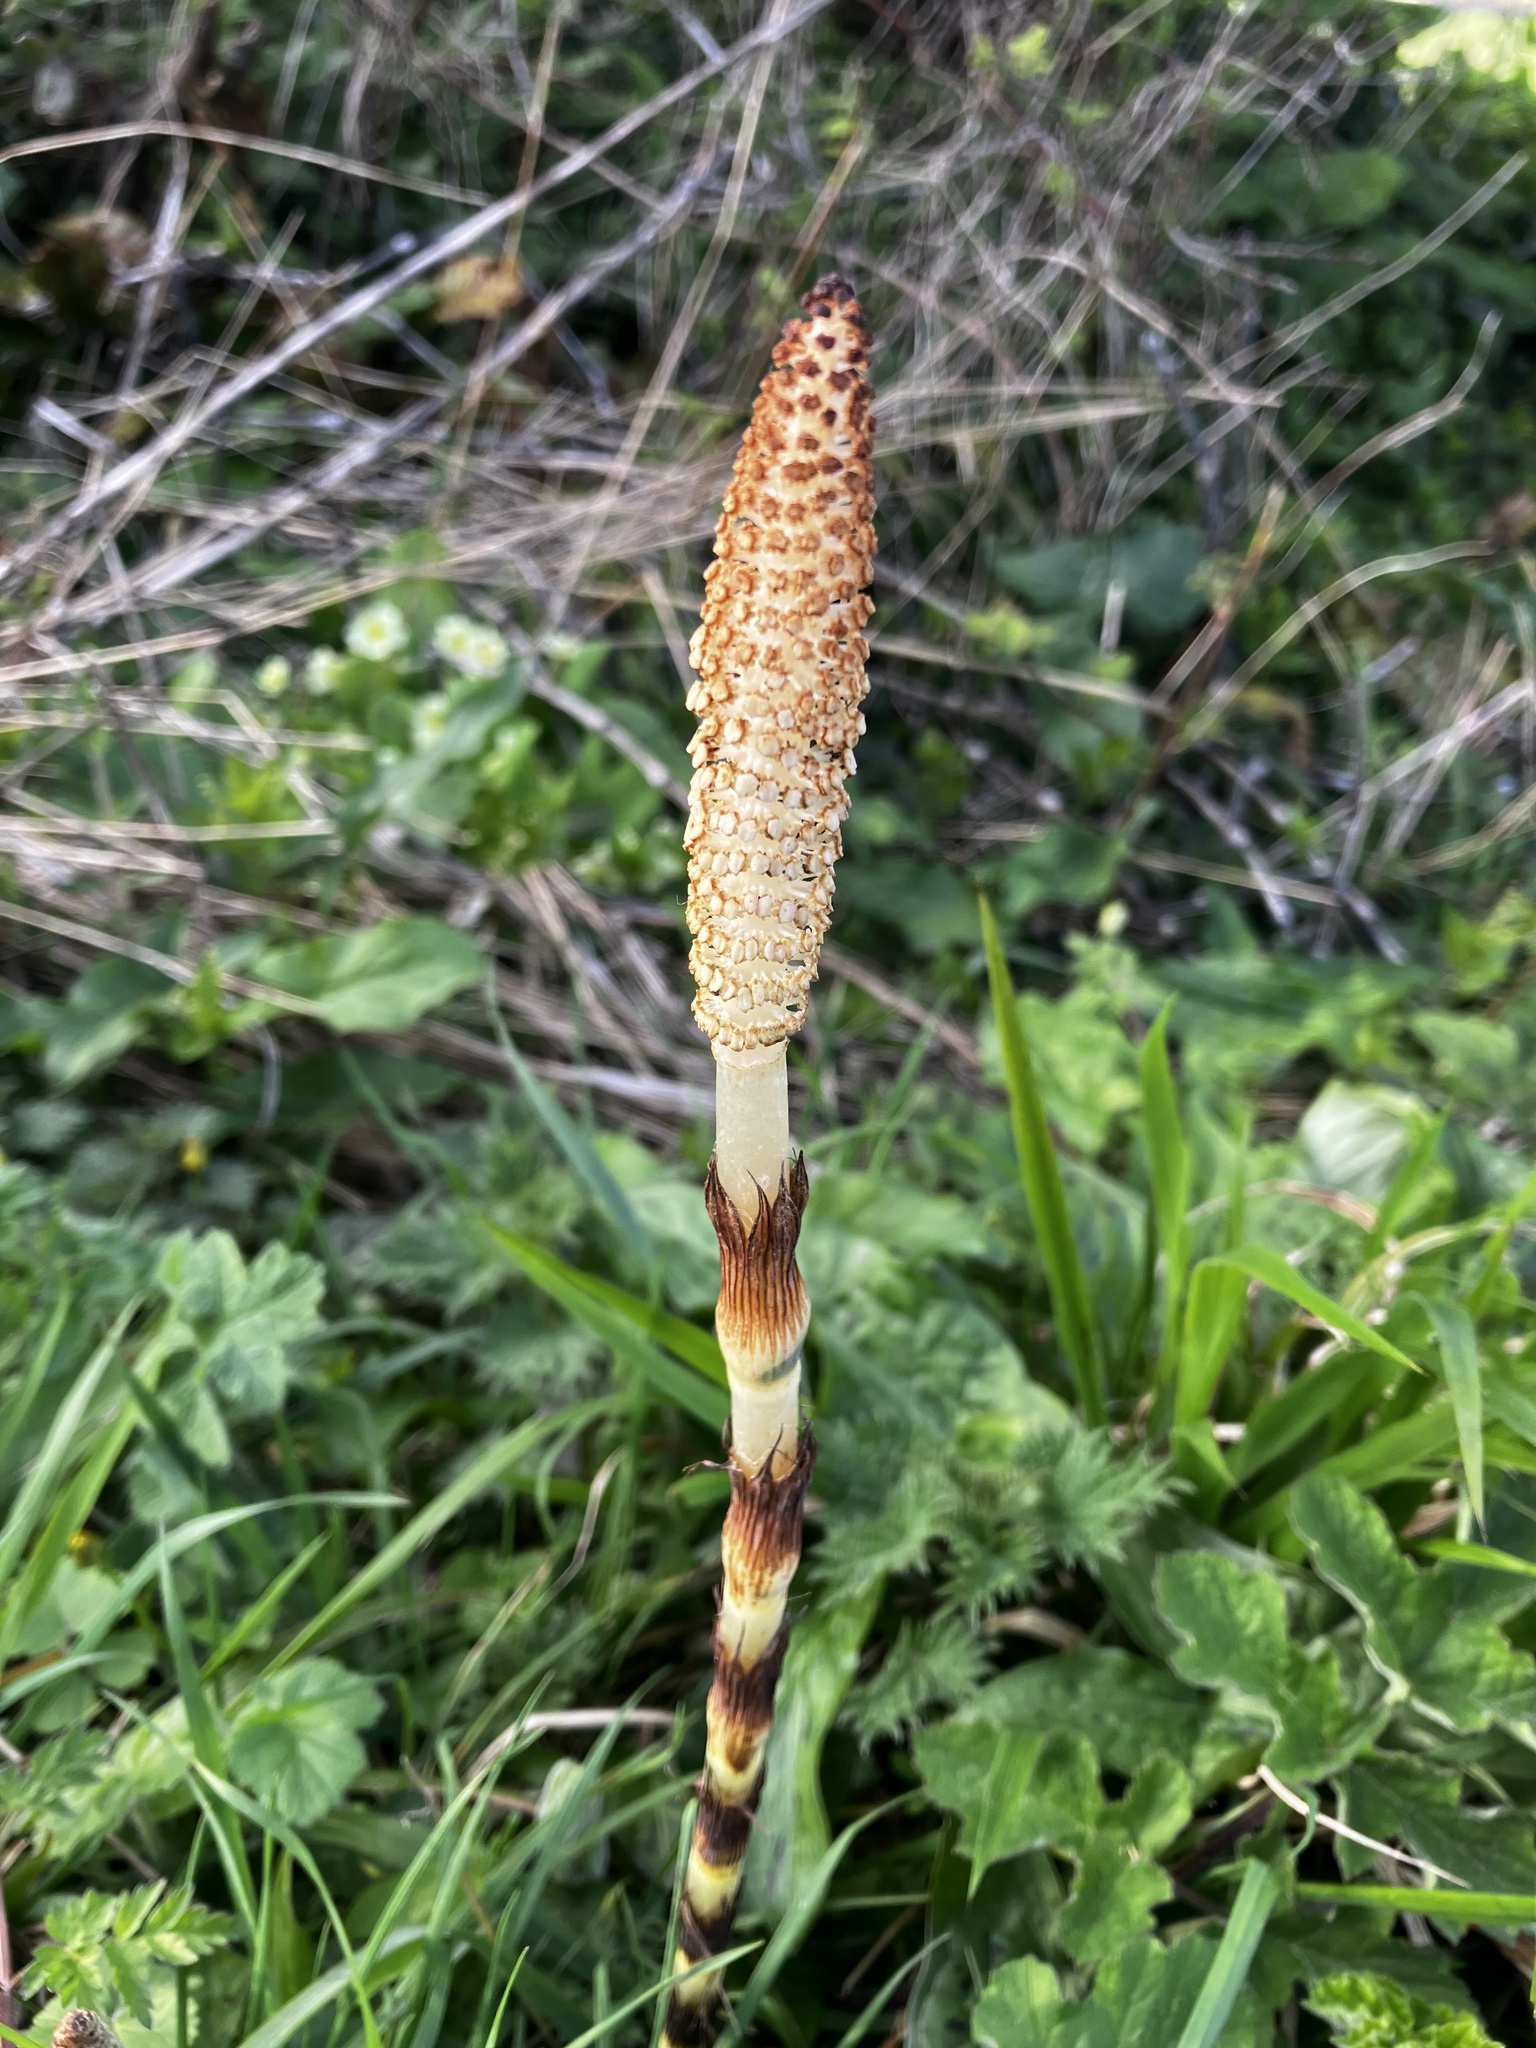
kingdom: Plantae
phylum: Tracheophyta
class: Polypodiopsida
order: Equisetales
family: Equisetaceae
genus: Equisetum
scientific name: Equisetum telmateia
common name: Great horsetail
